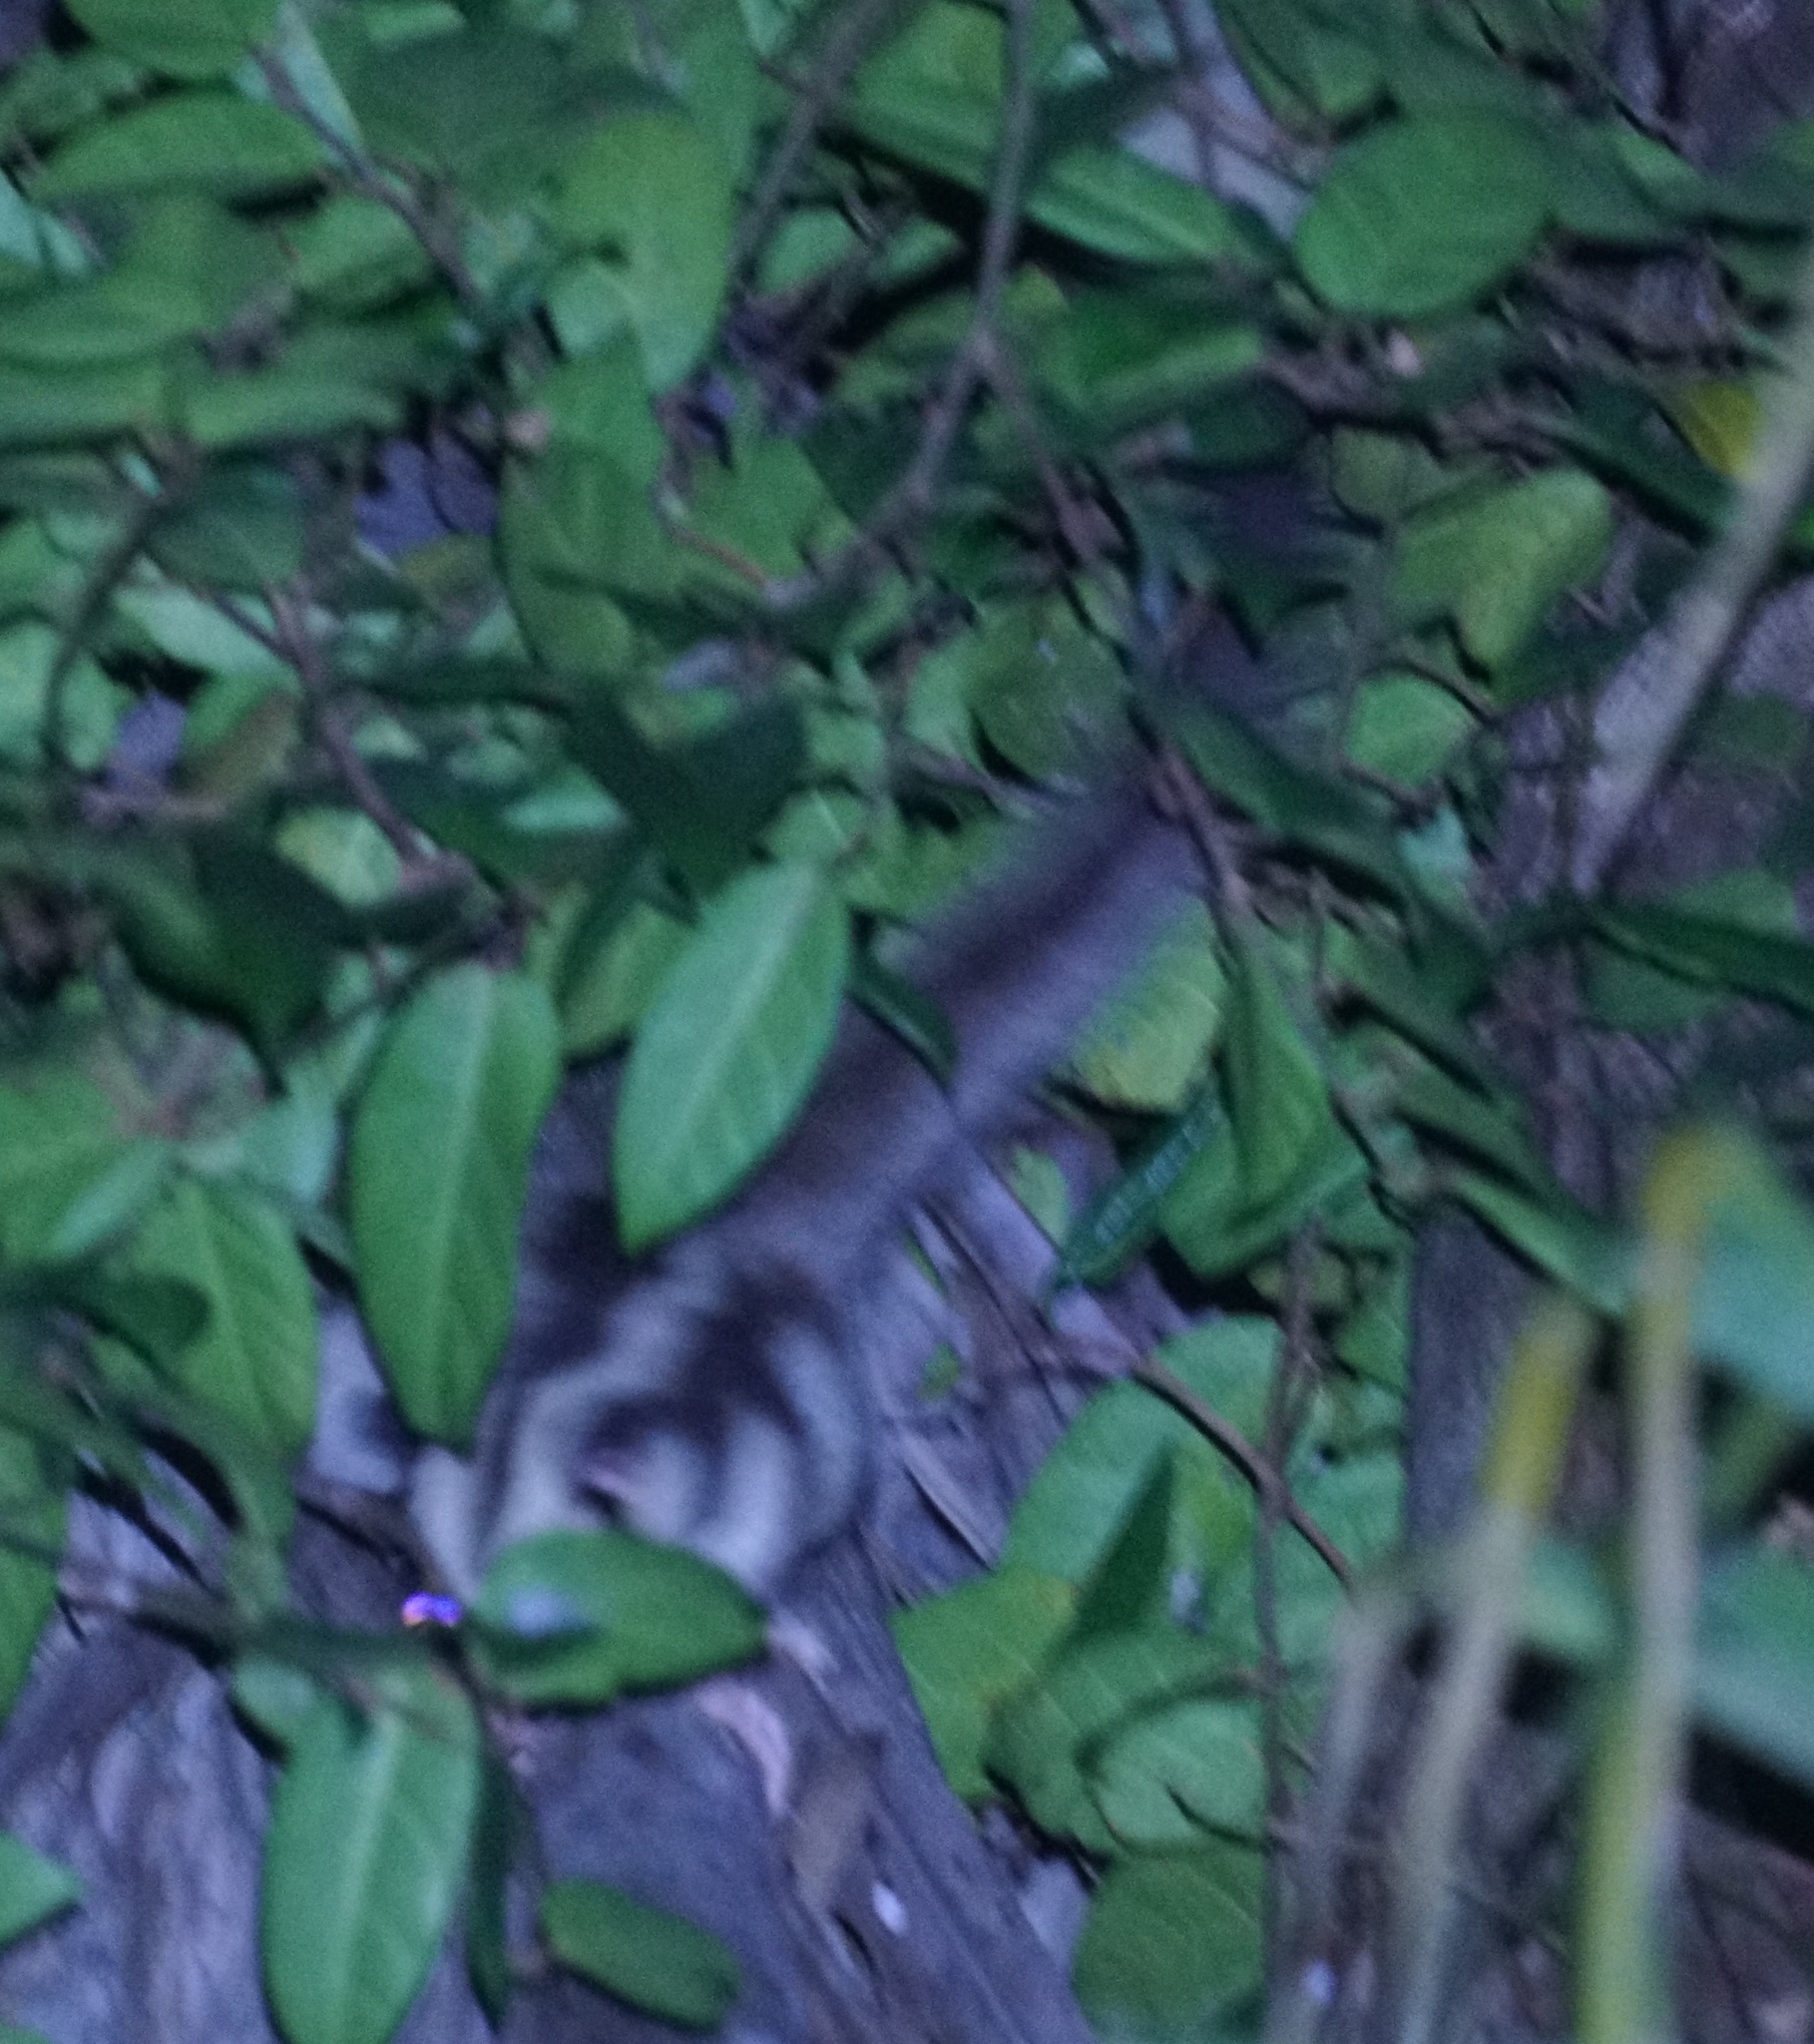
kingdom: Animalia
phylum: Chordata
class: Mammalia
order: Diprotodontia
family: Petauridae
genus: Dactylopsila
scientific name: Dactylopsila trivirgata
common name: Striped possum
